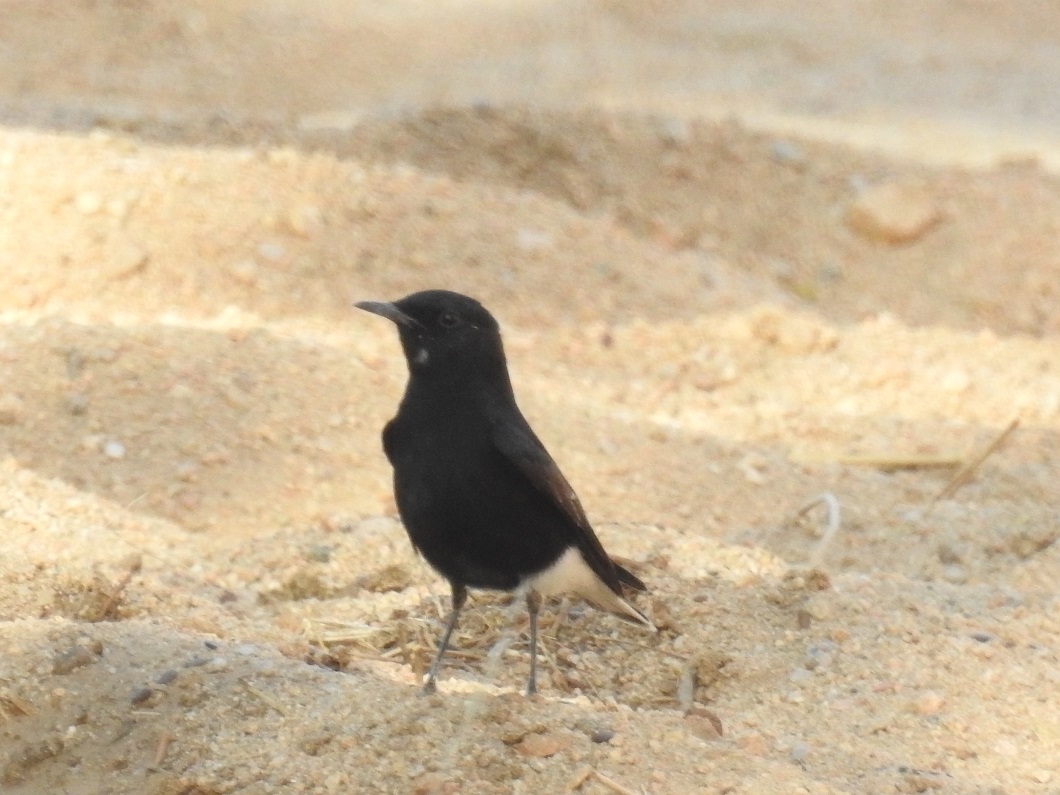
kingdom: Animalia
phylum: Chordata
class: Aves
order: Passeriformes
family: Muscicapidae
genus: Oenanthe
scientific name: Oenanthe leucopyga
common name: White-crowned wheatear
